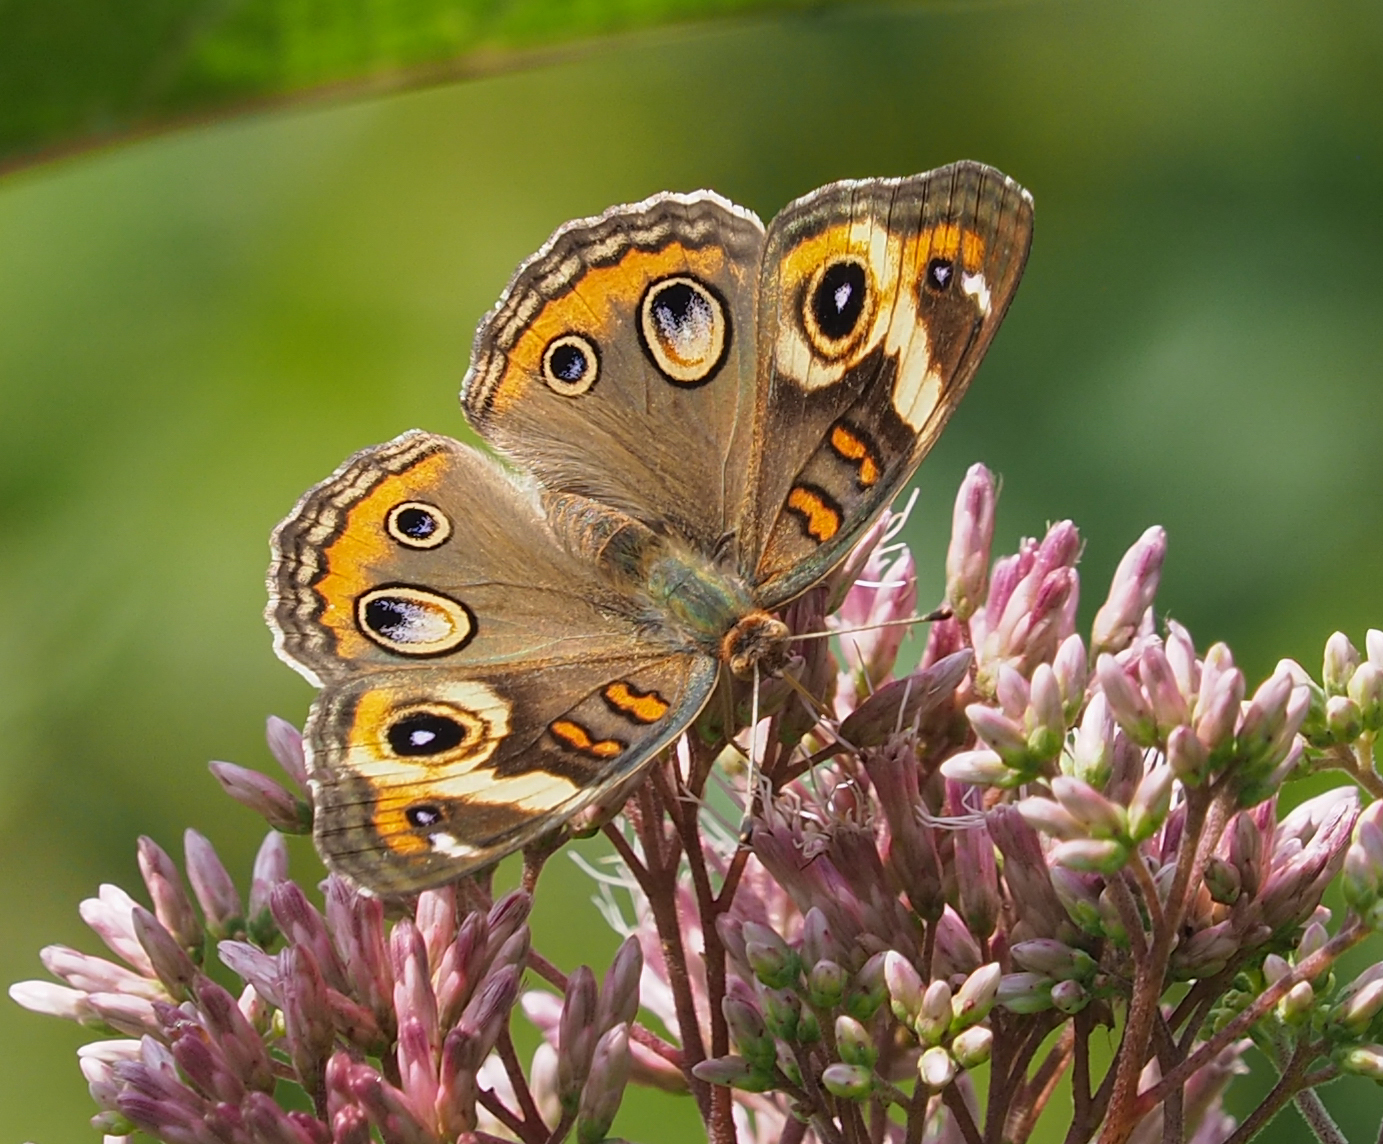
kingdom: Animalia
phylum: Arthropoda
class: Insecta
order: Lepidoptera
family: Nymphalidae
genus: Junonia
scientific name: Junonia coenia
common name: Common buckeye
